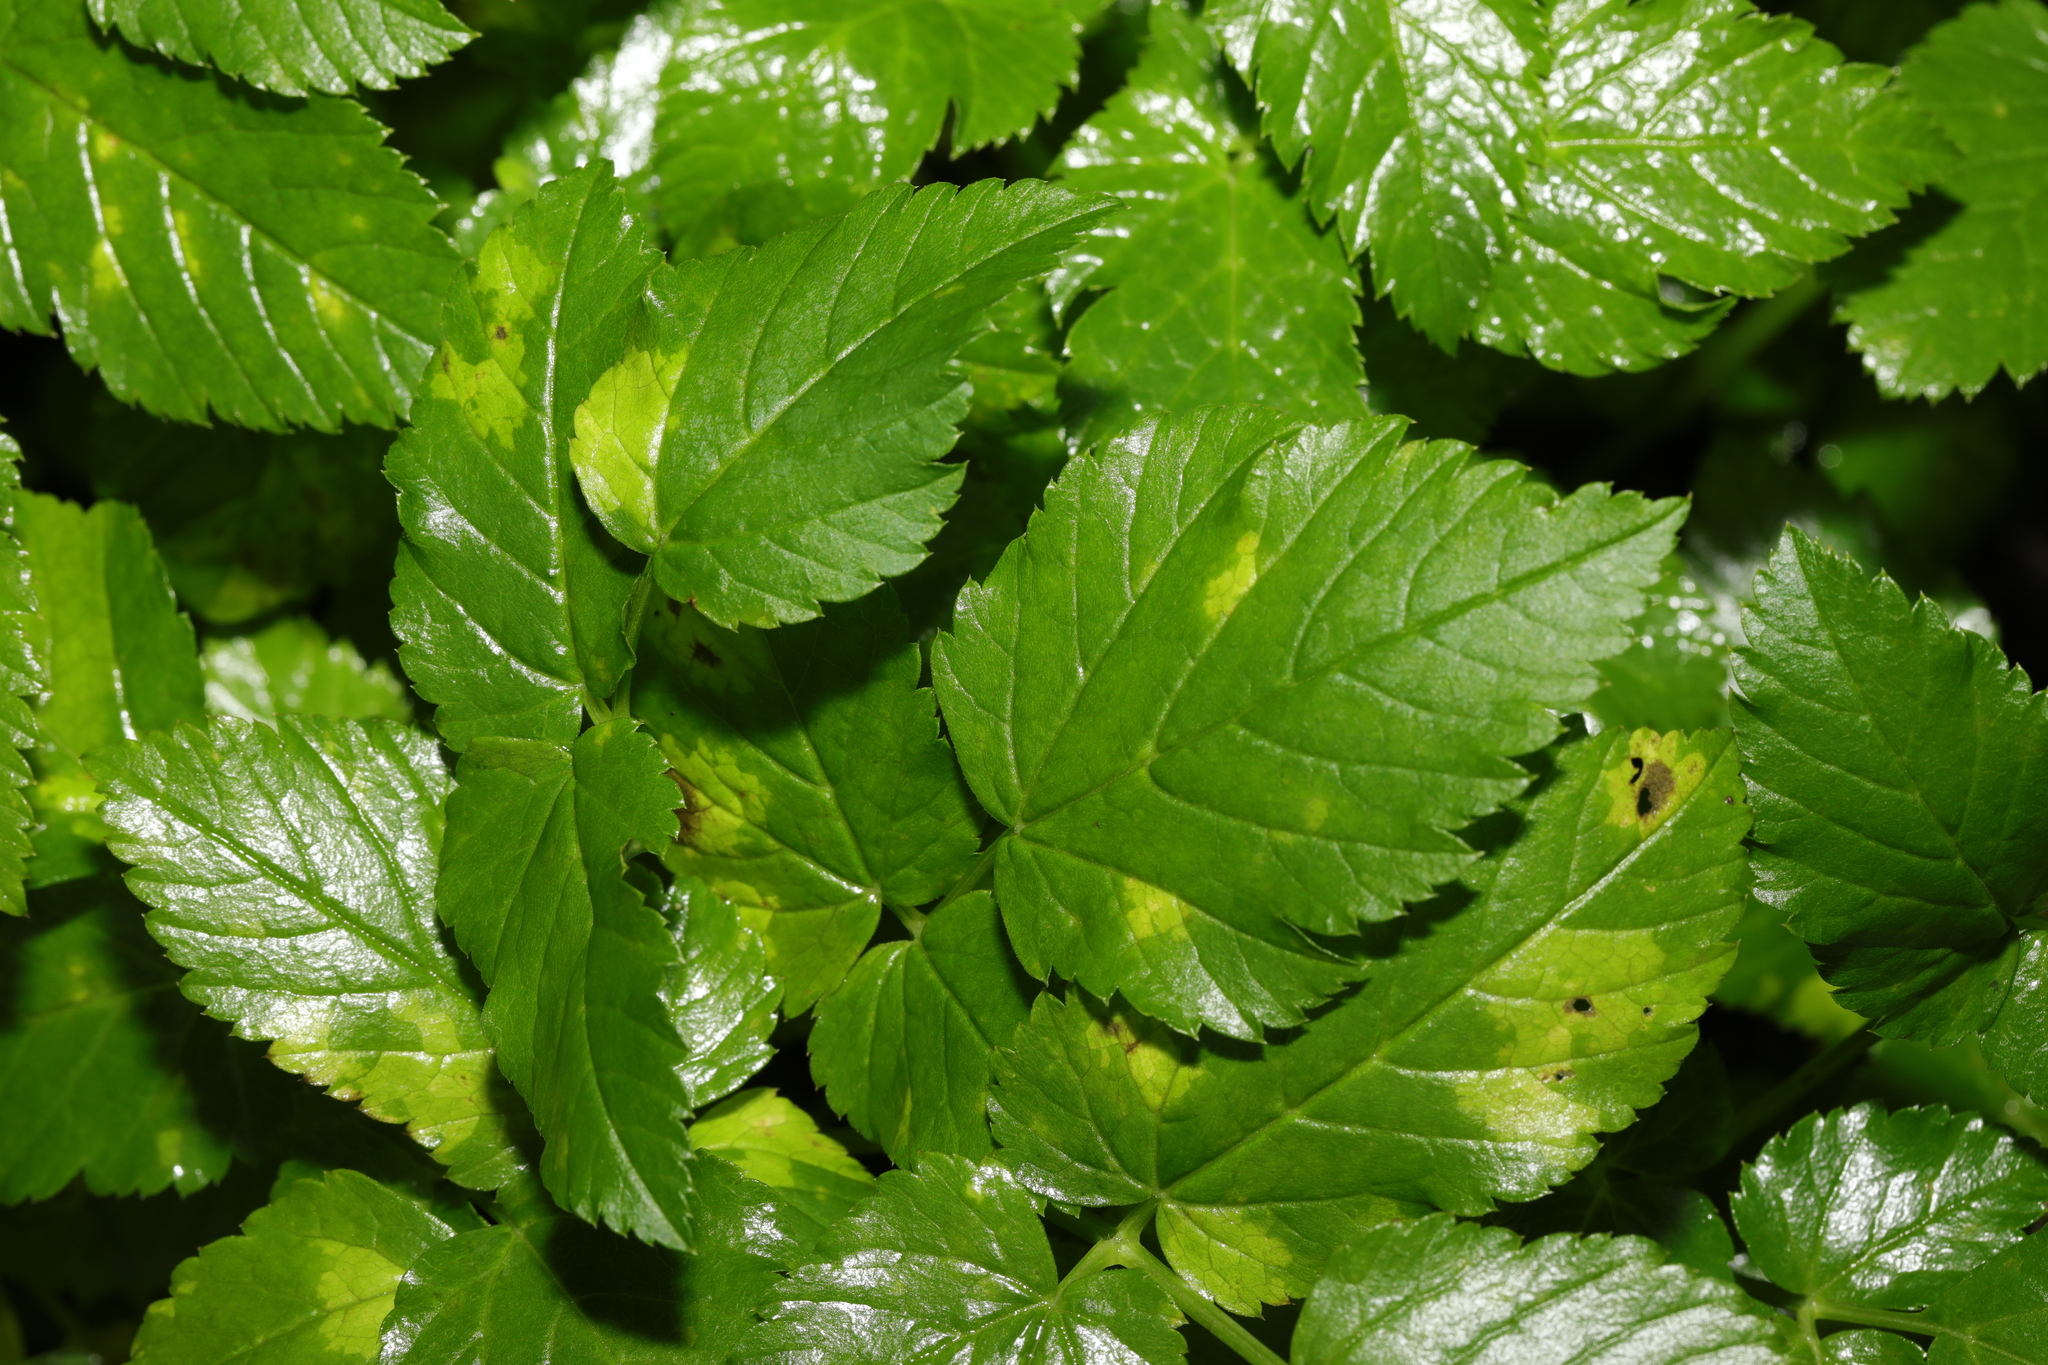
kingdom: Plantae
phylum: Tracheophyta
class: Magnoliopsida
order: Apiales
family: Apiaceae
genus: Aegopodium
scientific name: Aegopodium podagraria
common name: Ground-elder
